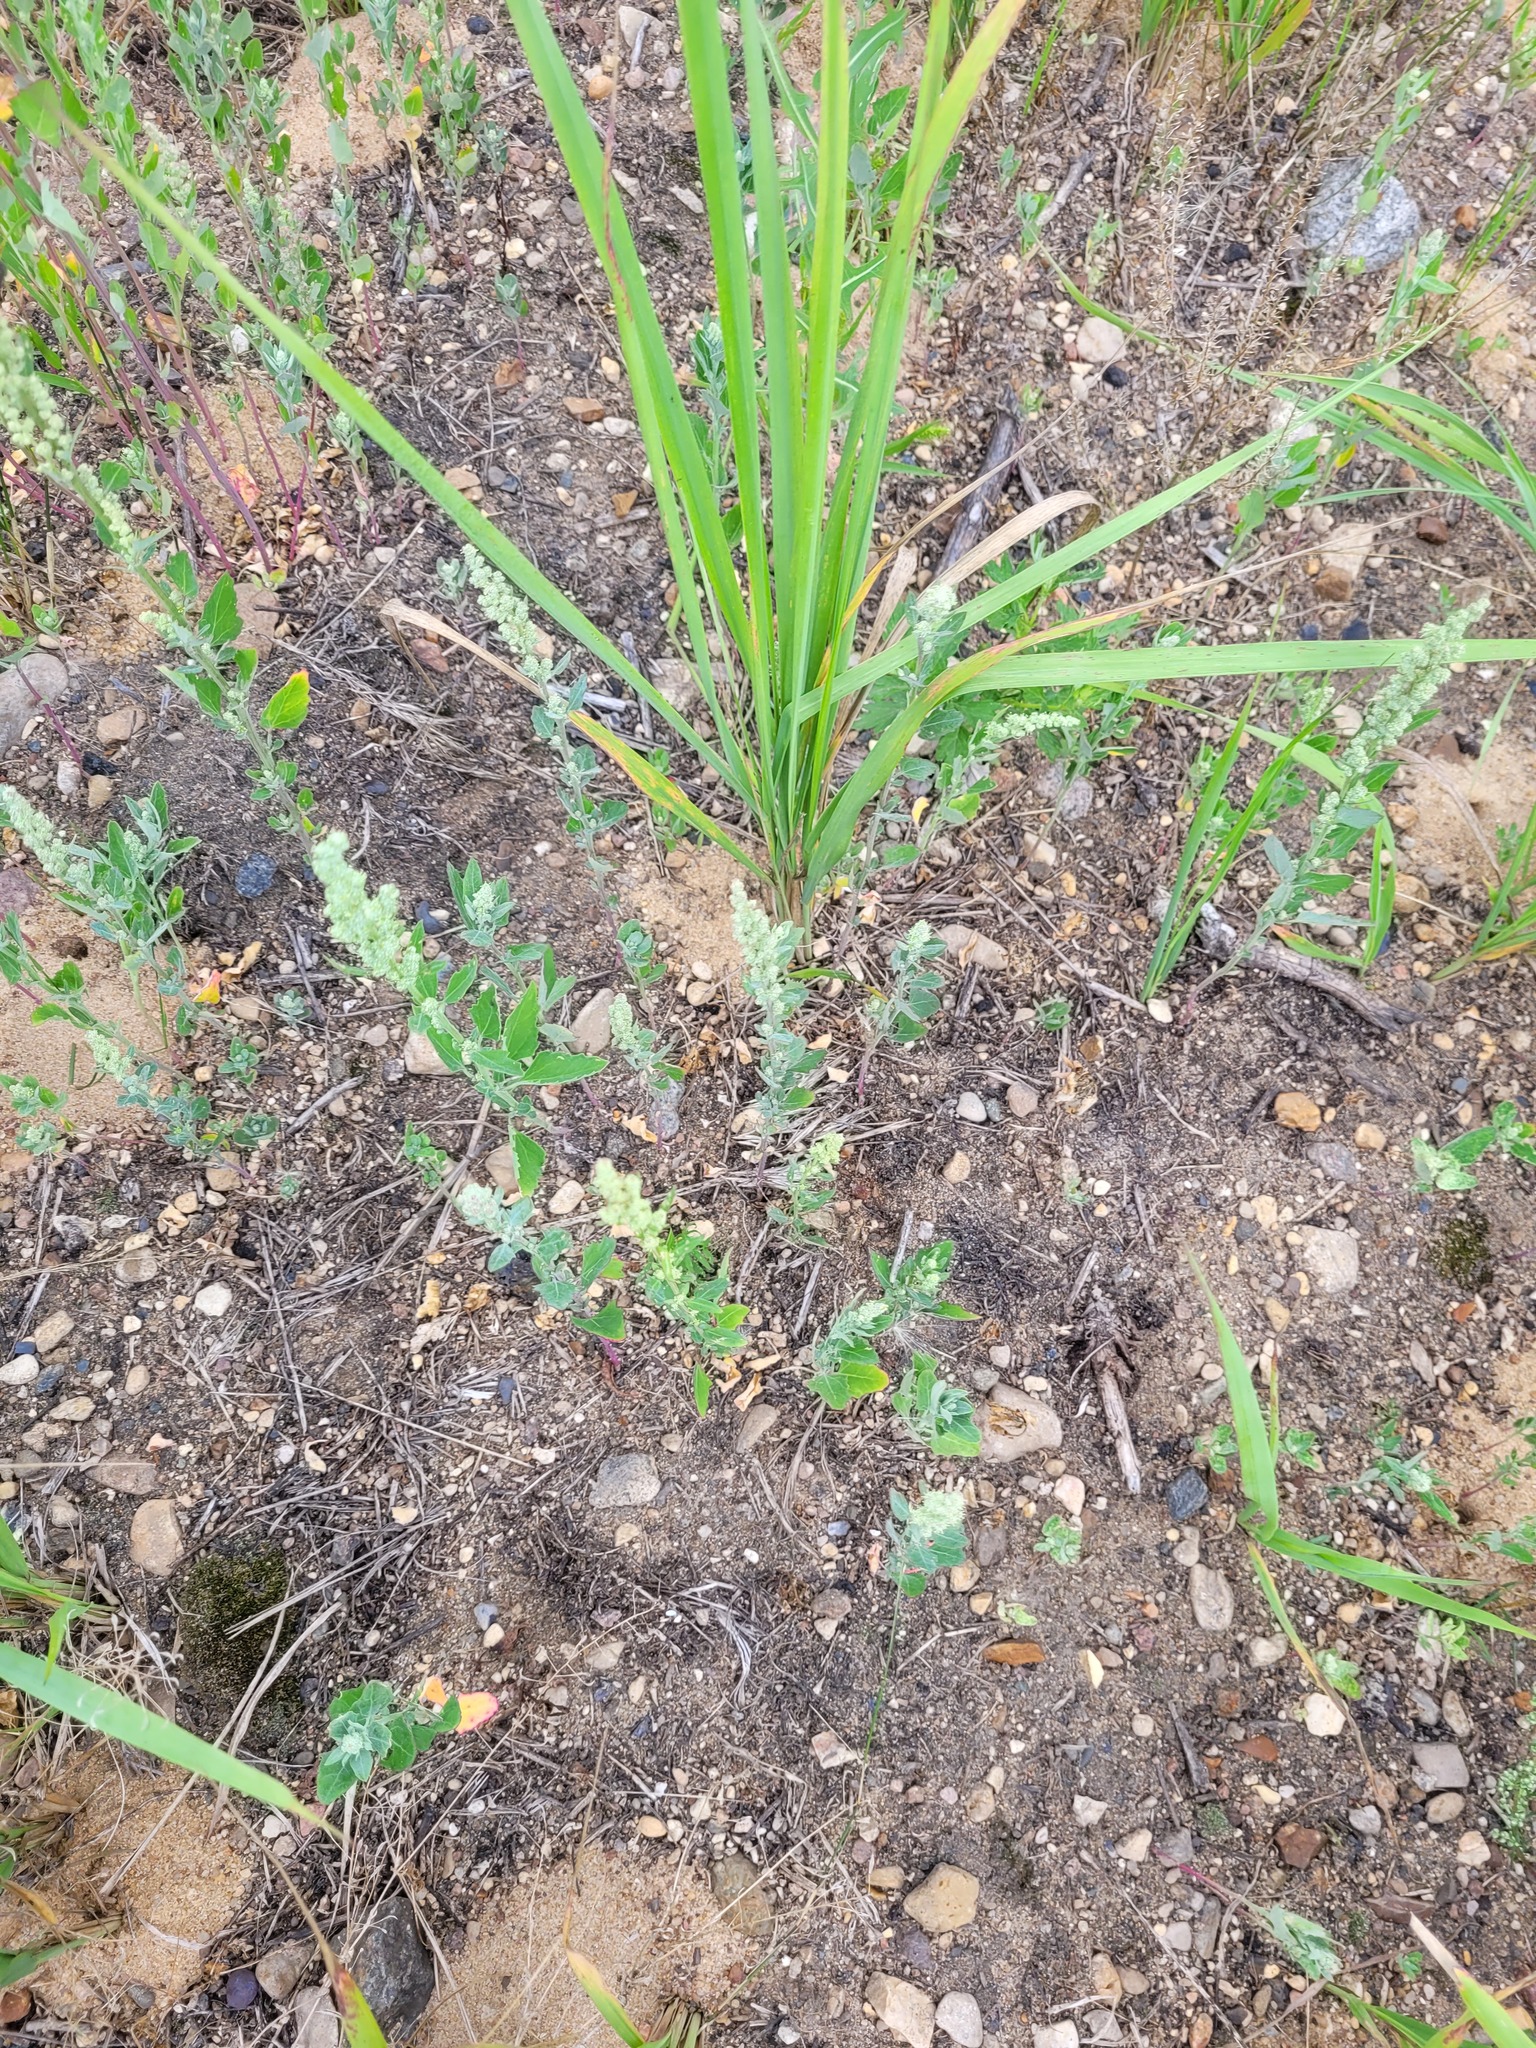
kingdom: Plantae
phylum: Tracheophyta
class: Magnoliopsida
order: Caryophyllales
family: Amaranthaceae
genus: Chenopodium
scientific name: Chenopodium album
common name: Fat-hen
